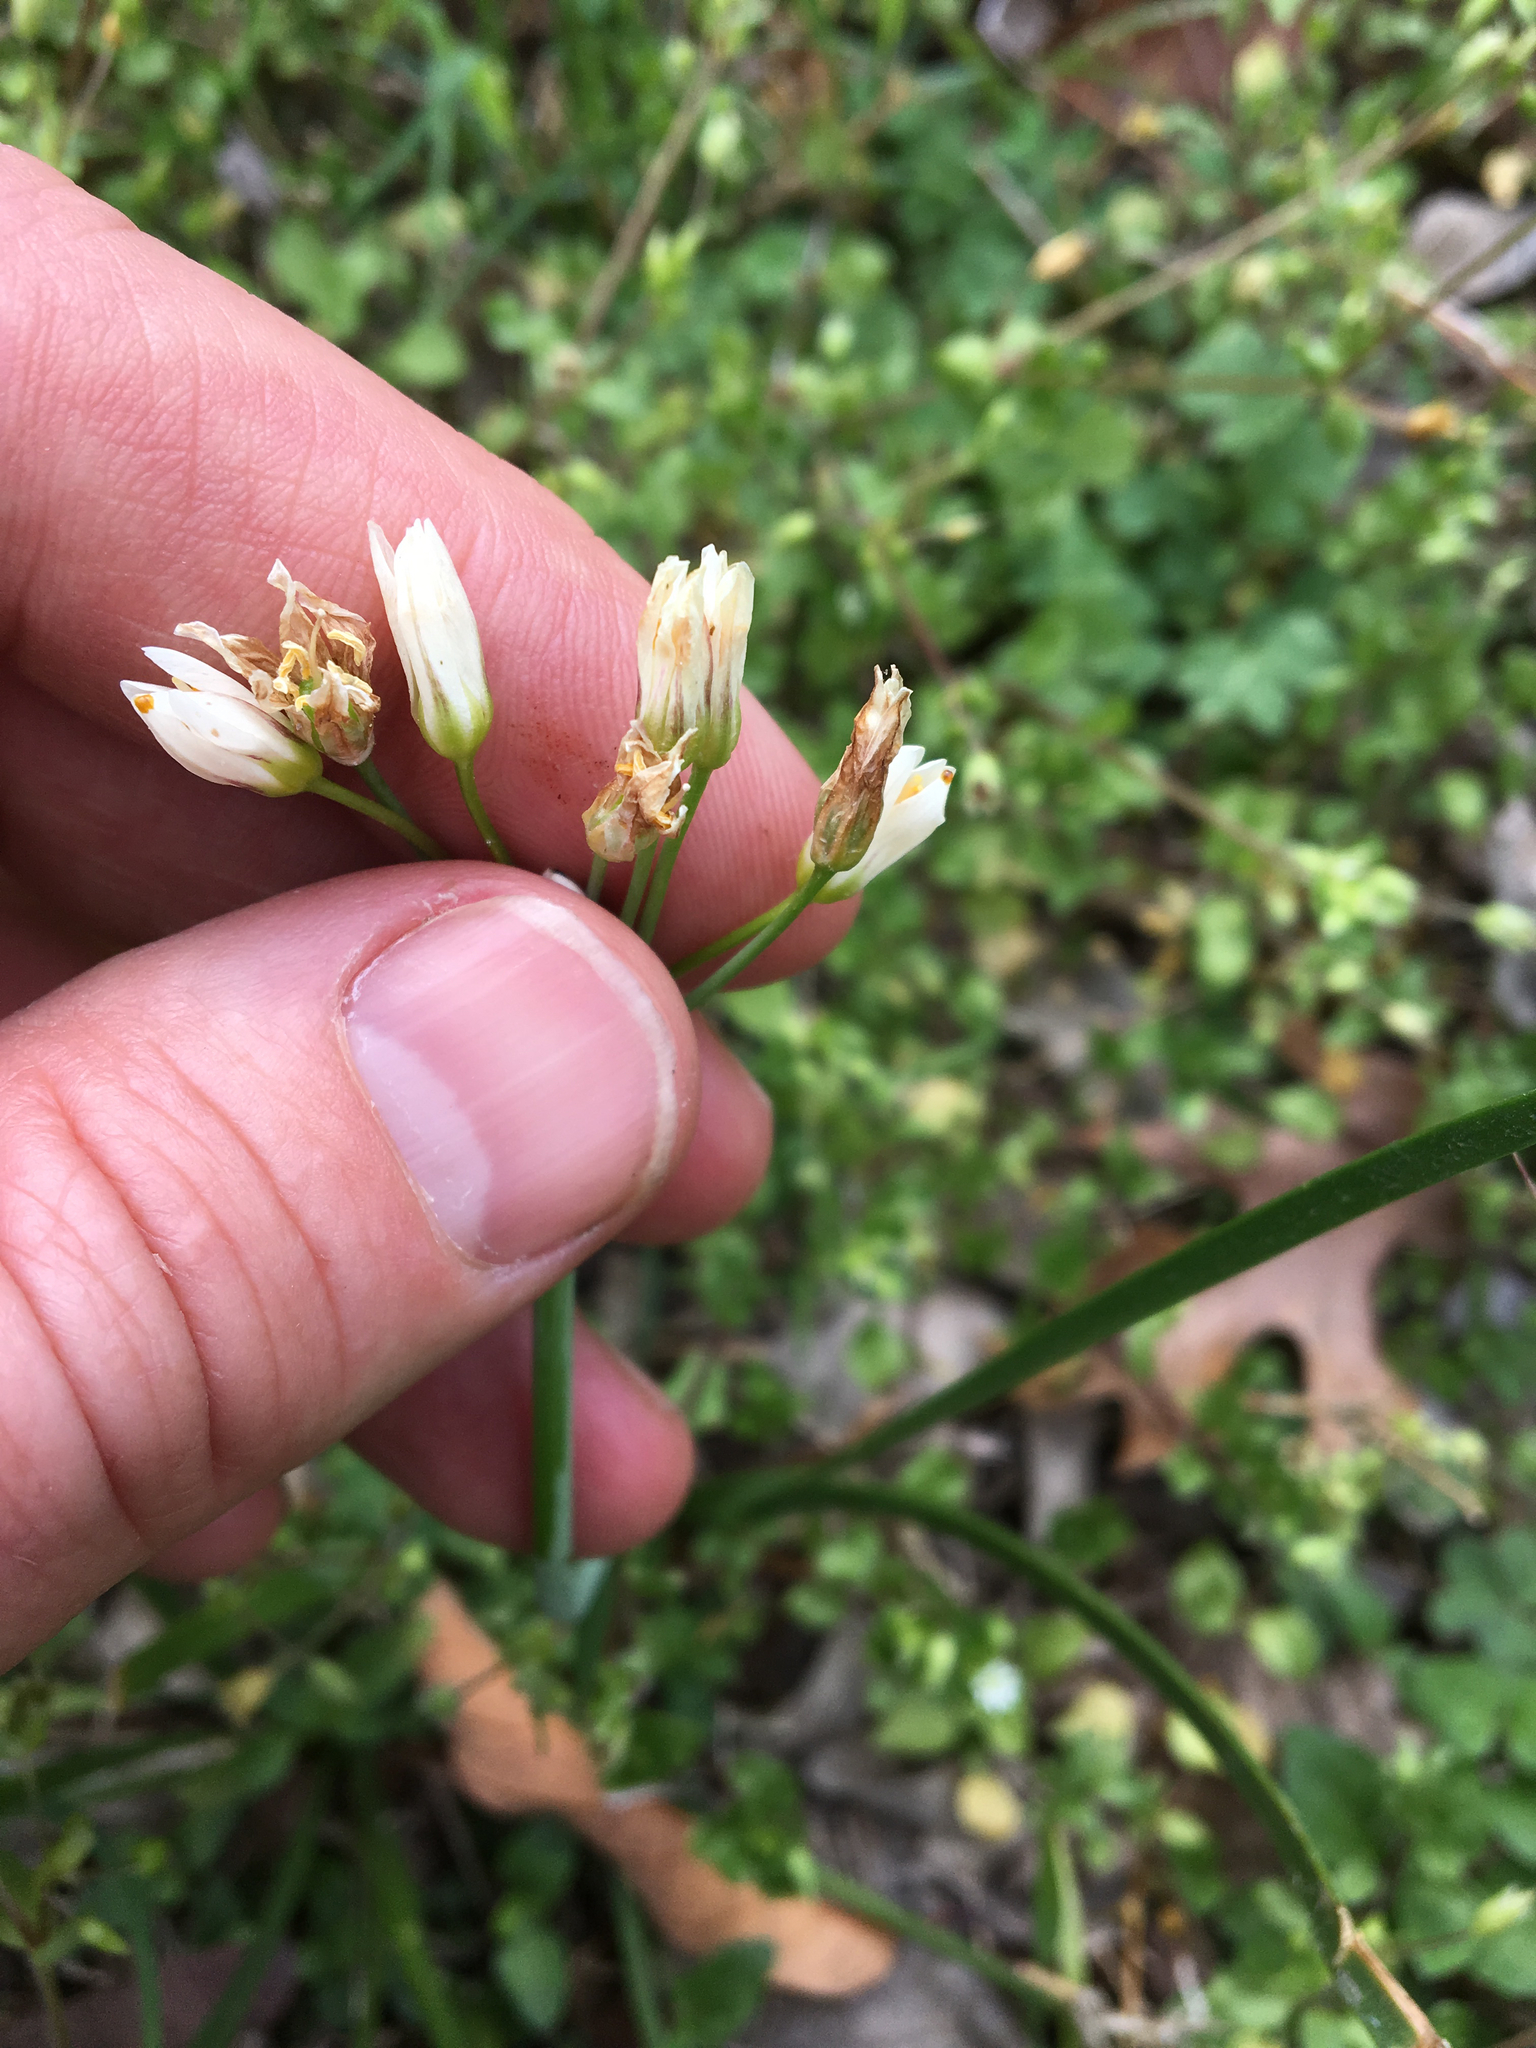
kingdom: Plantae
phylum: Tracheophyta
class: Liliopsida
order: Asparagales
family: Amaryllidaceae
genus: Nothoscordum
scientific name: Nothoscordum bivalve
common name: Crow-poison
